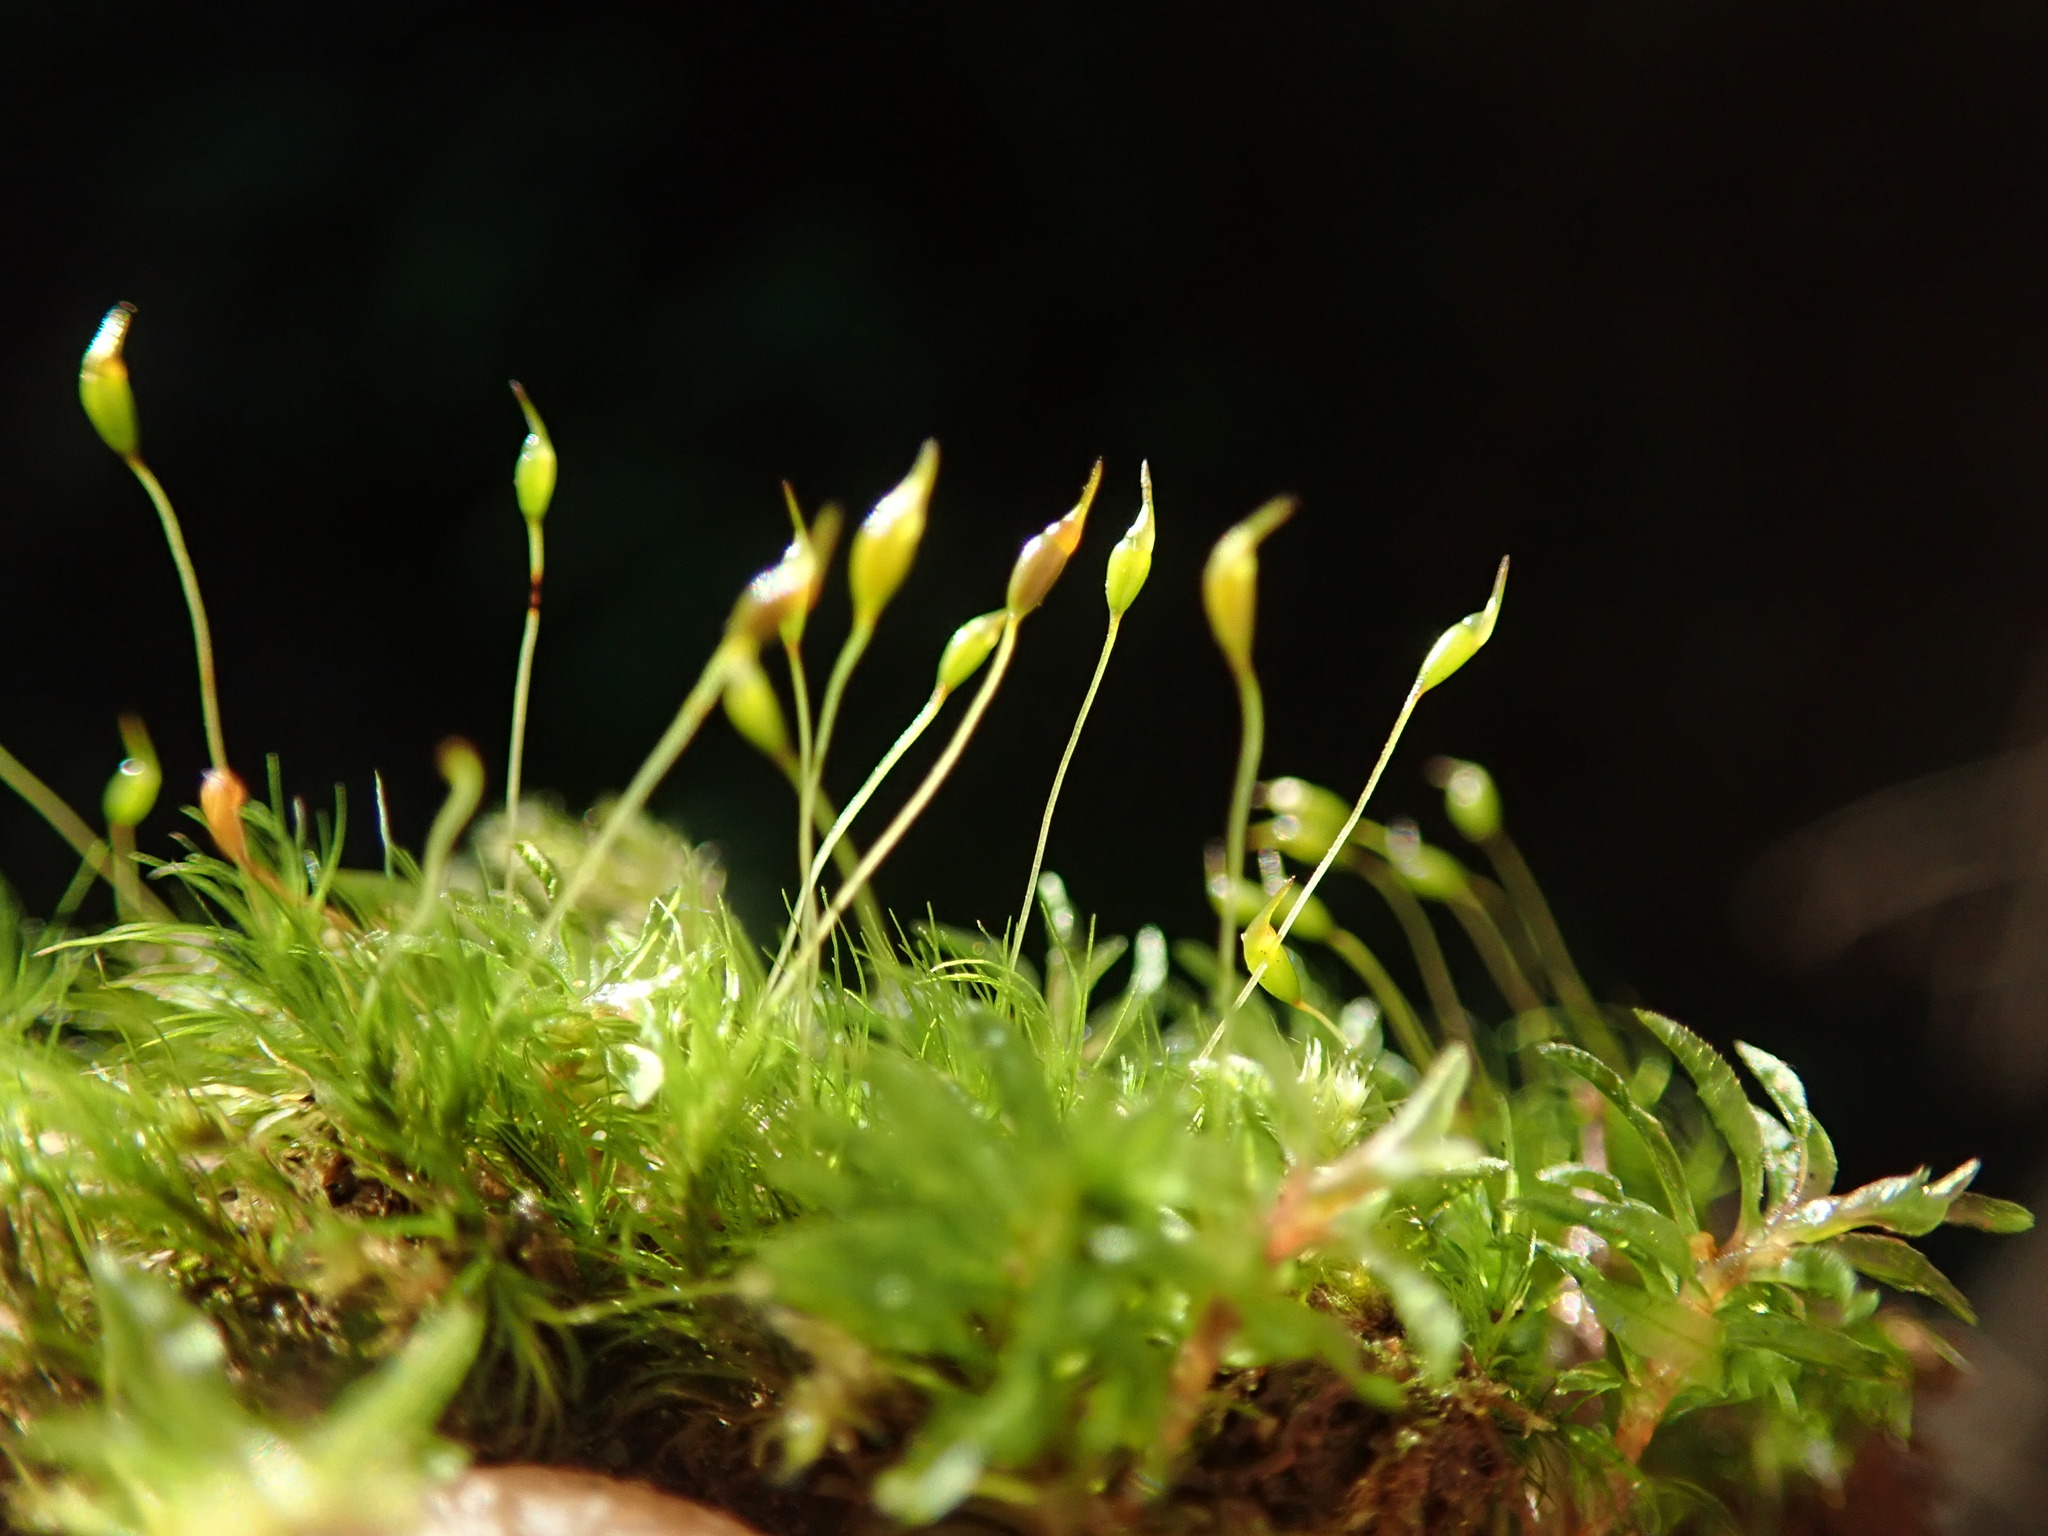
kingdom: Plantae
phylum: Bryophyta
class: Bryopsida
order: Dicranales
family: Dicranellaceae
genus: Dicranella
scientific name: Dicranella heteromalla
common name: Silky forklet moss
